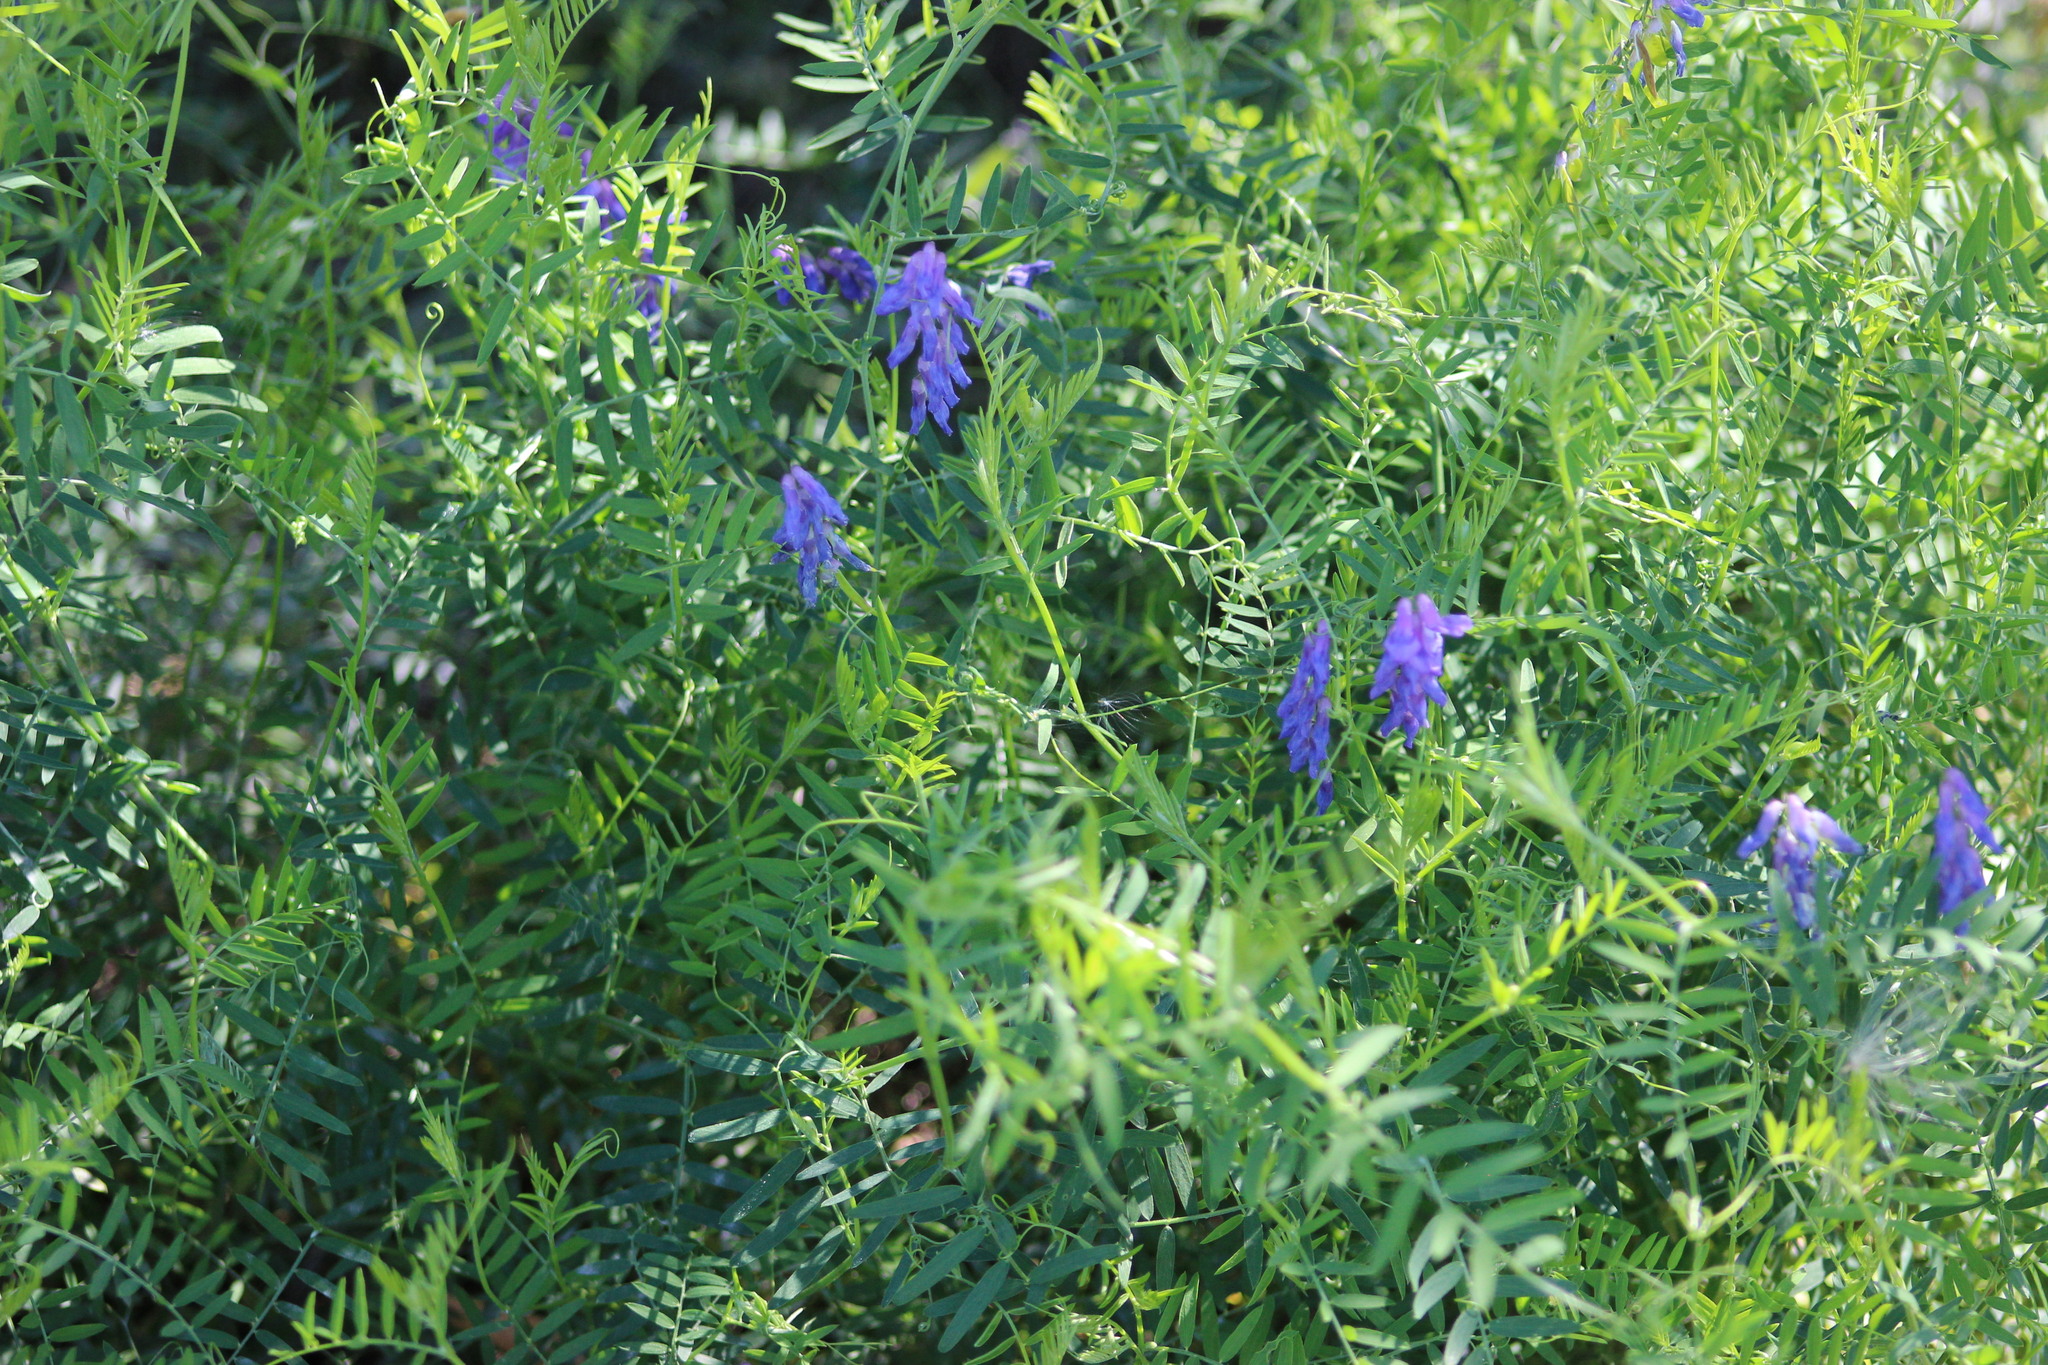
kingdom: Plantae
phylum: Tracheophyta
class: Magnoliopsida
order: Fabales
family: Fabaceae
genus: Vicia
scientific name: Vicia cracca
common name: Bird vetch
